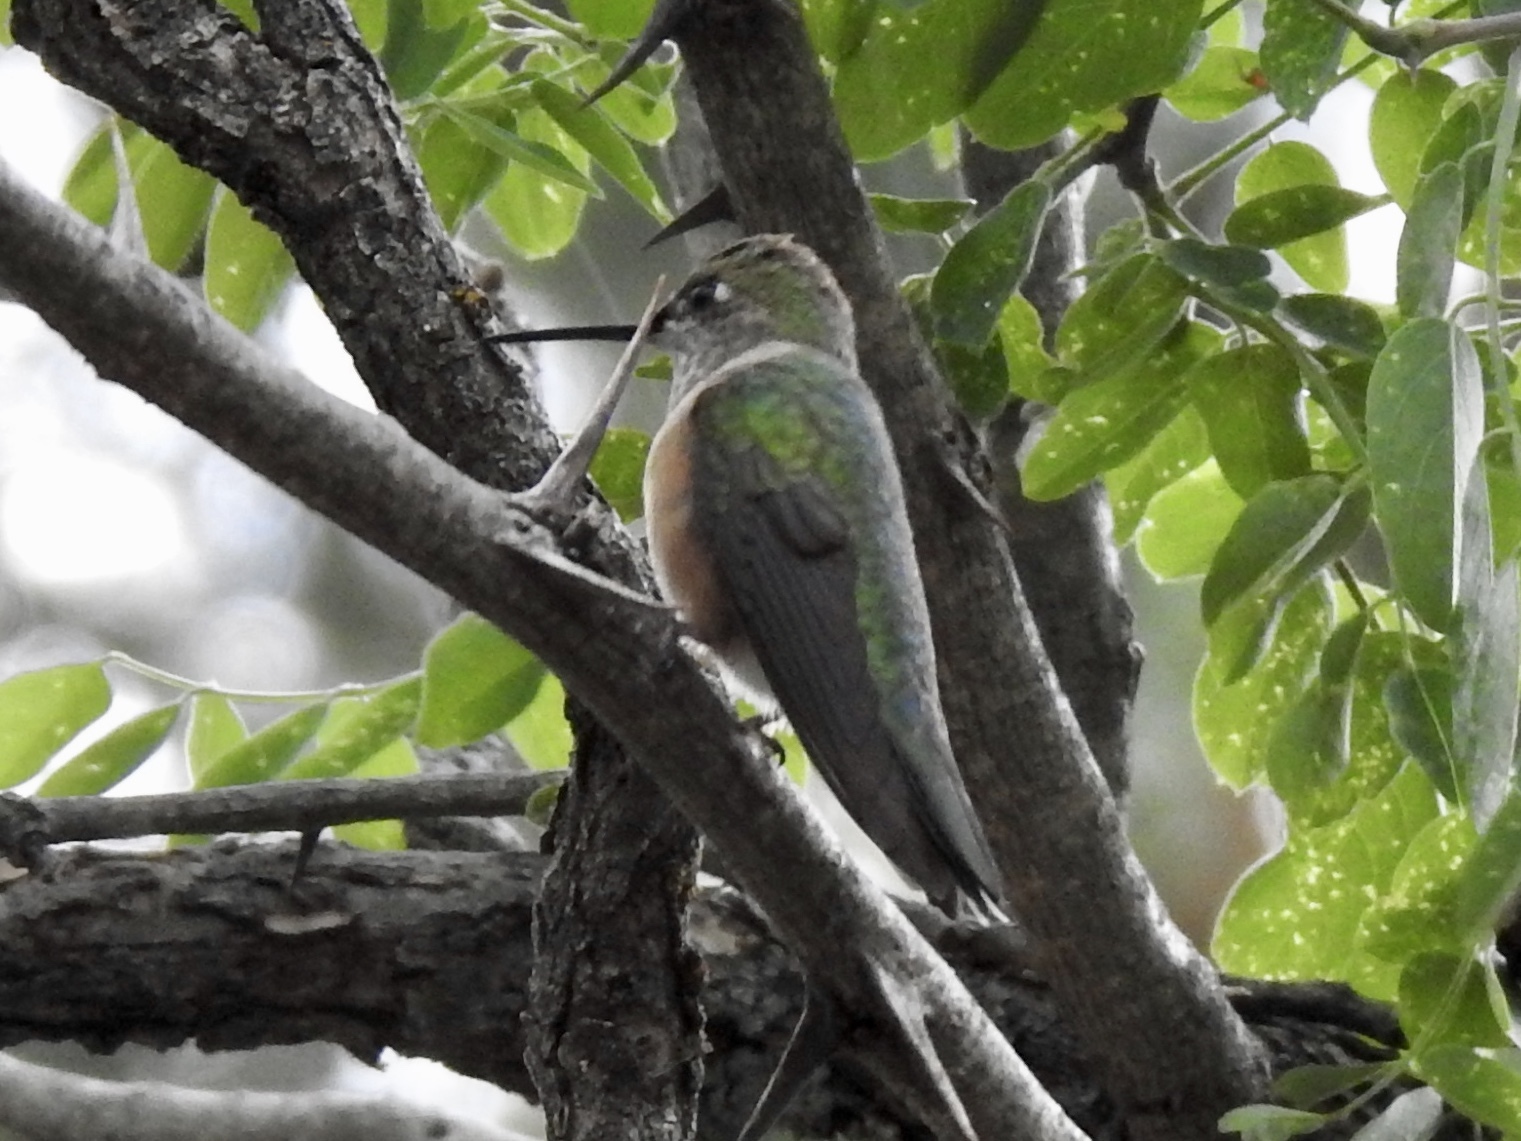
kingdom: Animalia
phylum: Chordata
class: Aves
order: Apodiformes
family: Trochilidae
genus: Selasphorus
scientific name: Selasphorus platycercus
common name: Broad-tailed hummingbird
